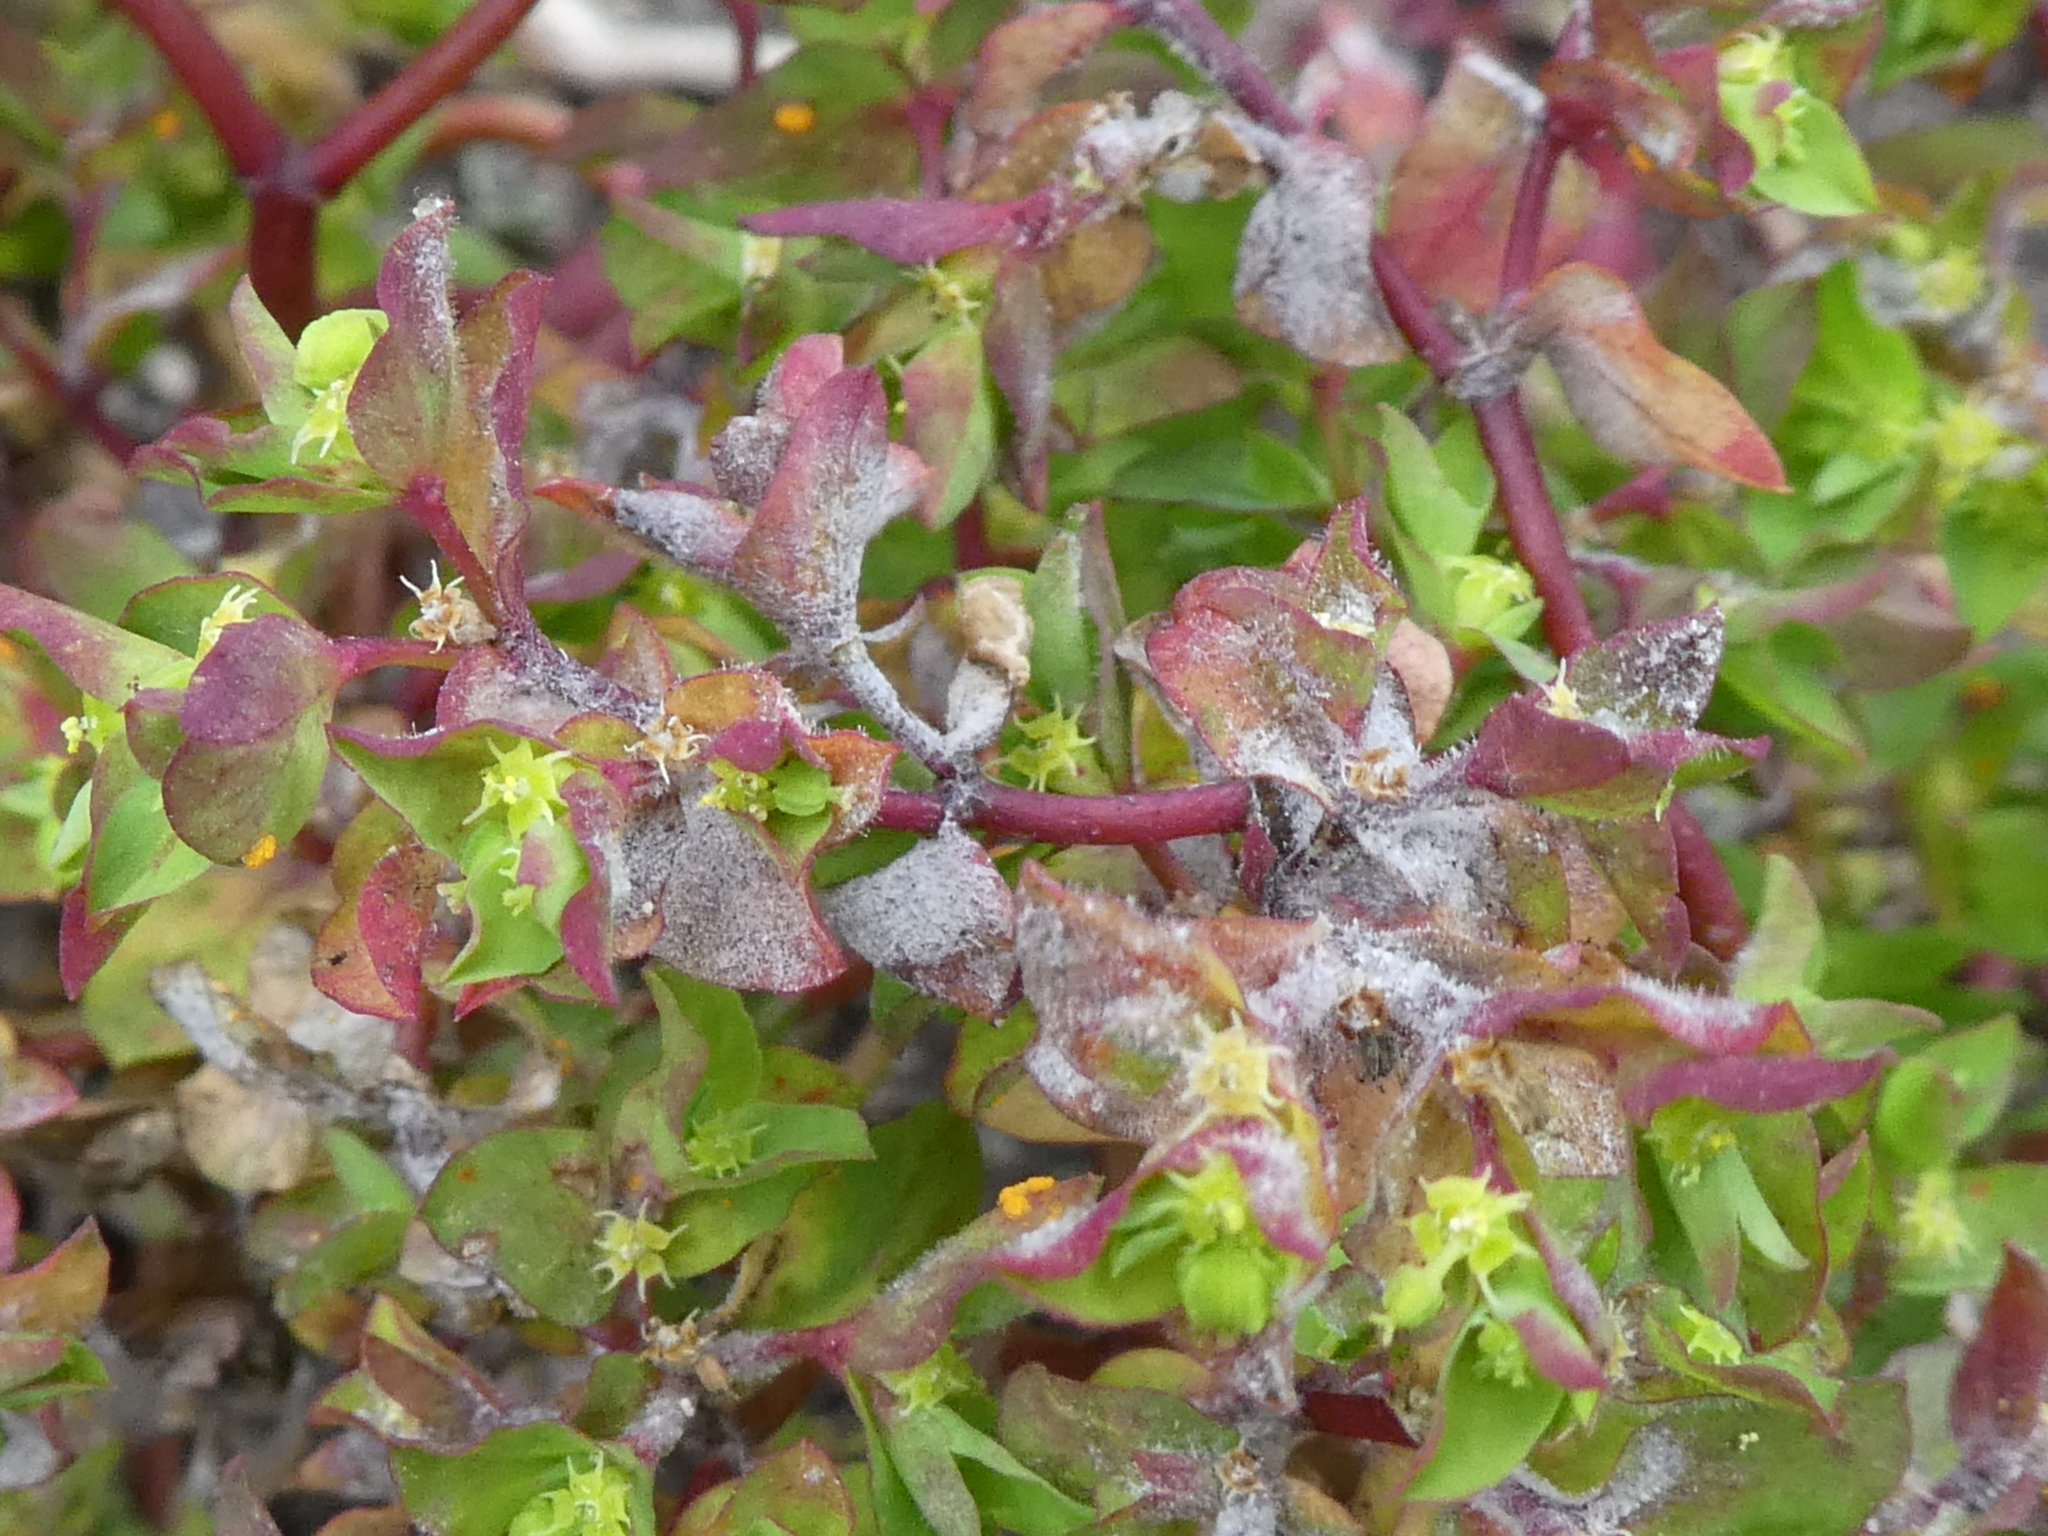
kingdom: Plantae
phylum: Tracheophyta
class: Magnoliopsida
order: Malpighiales
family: Euphorbiaceae
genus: Euphorbia
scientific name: Euphorbia peplus
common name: Petty spurge
